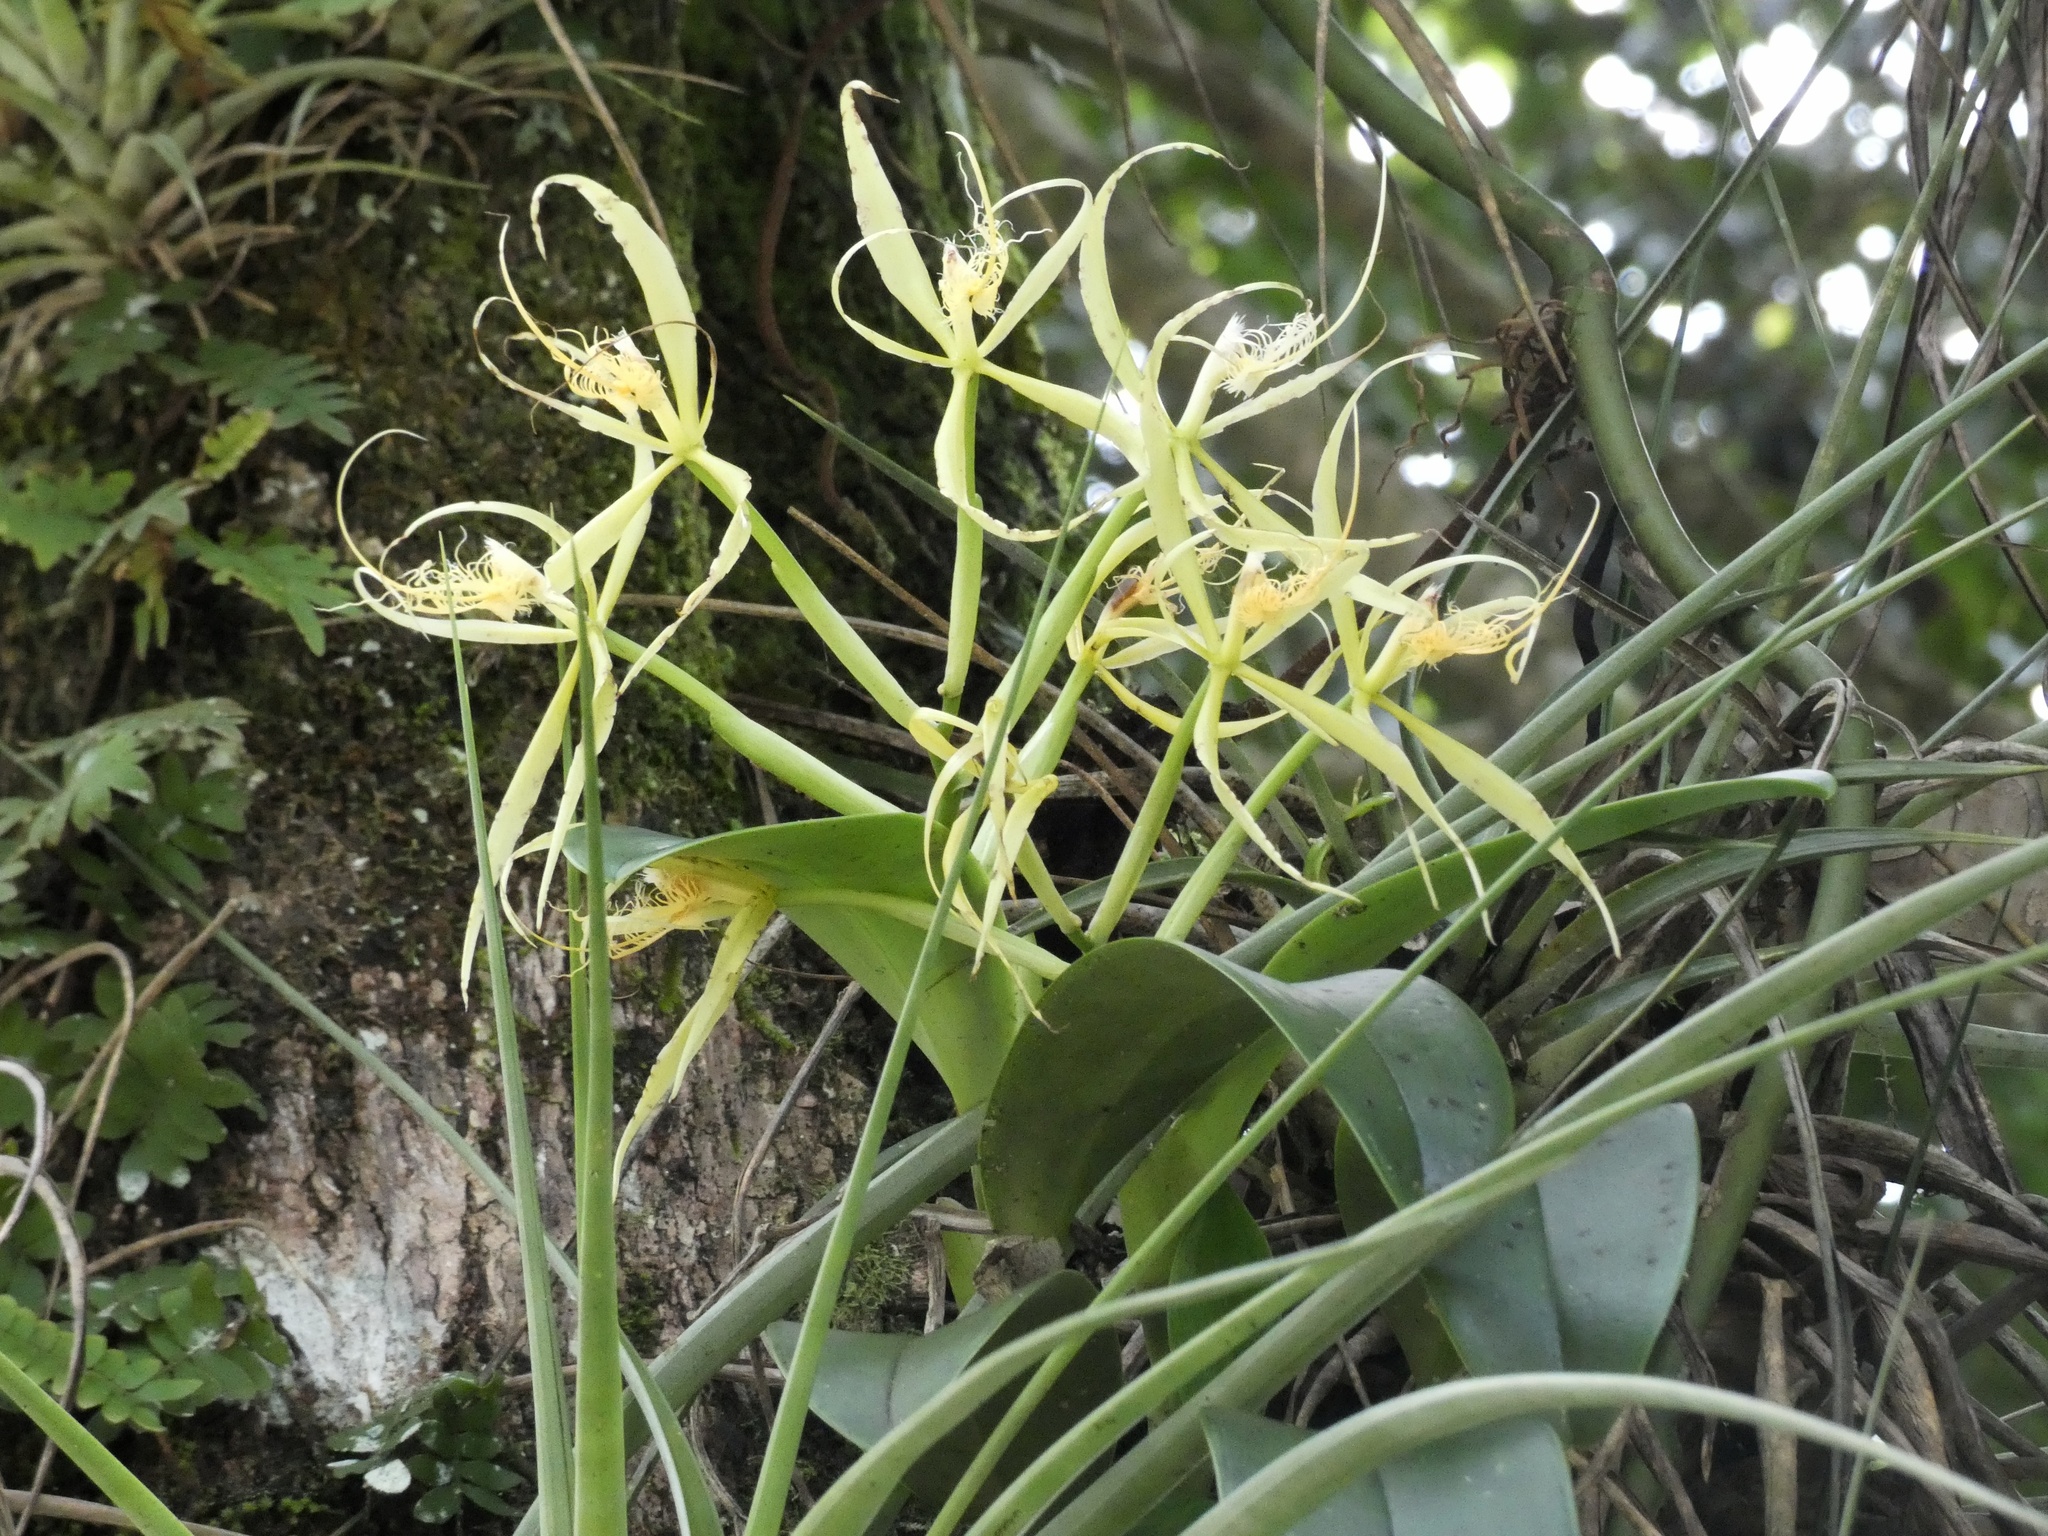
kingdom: Plantae
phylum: Tracheophyta
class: Liliopsida
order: Asparagales
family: Orchidaceae
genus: Epidendrum
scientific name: Epidendrum ciliare
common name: Eyelash orchid
